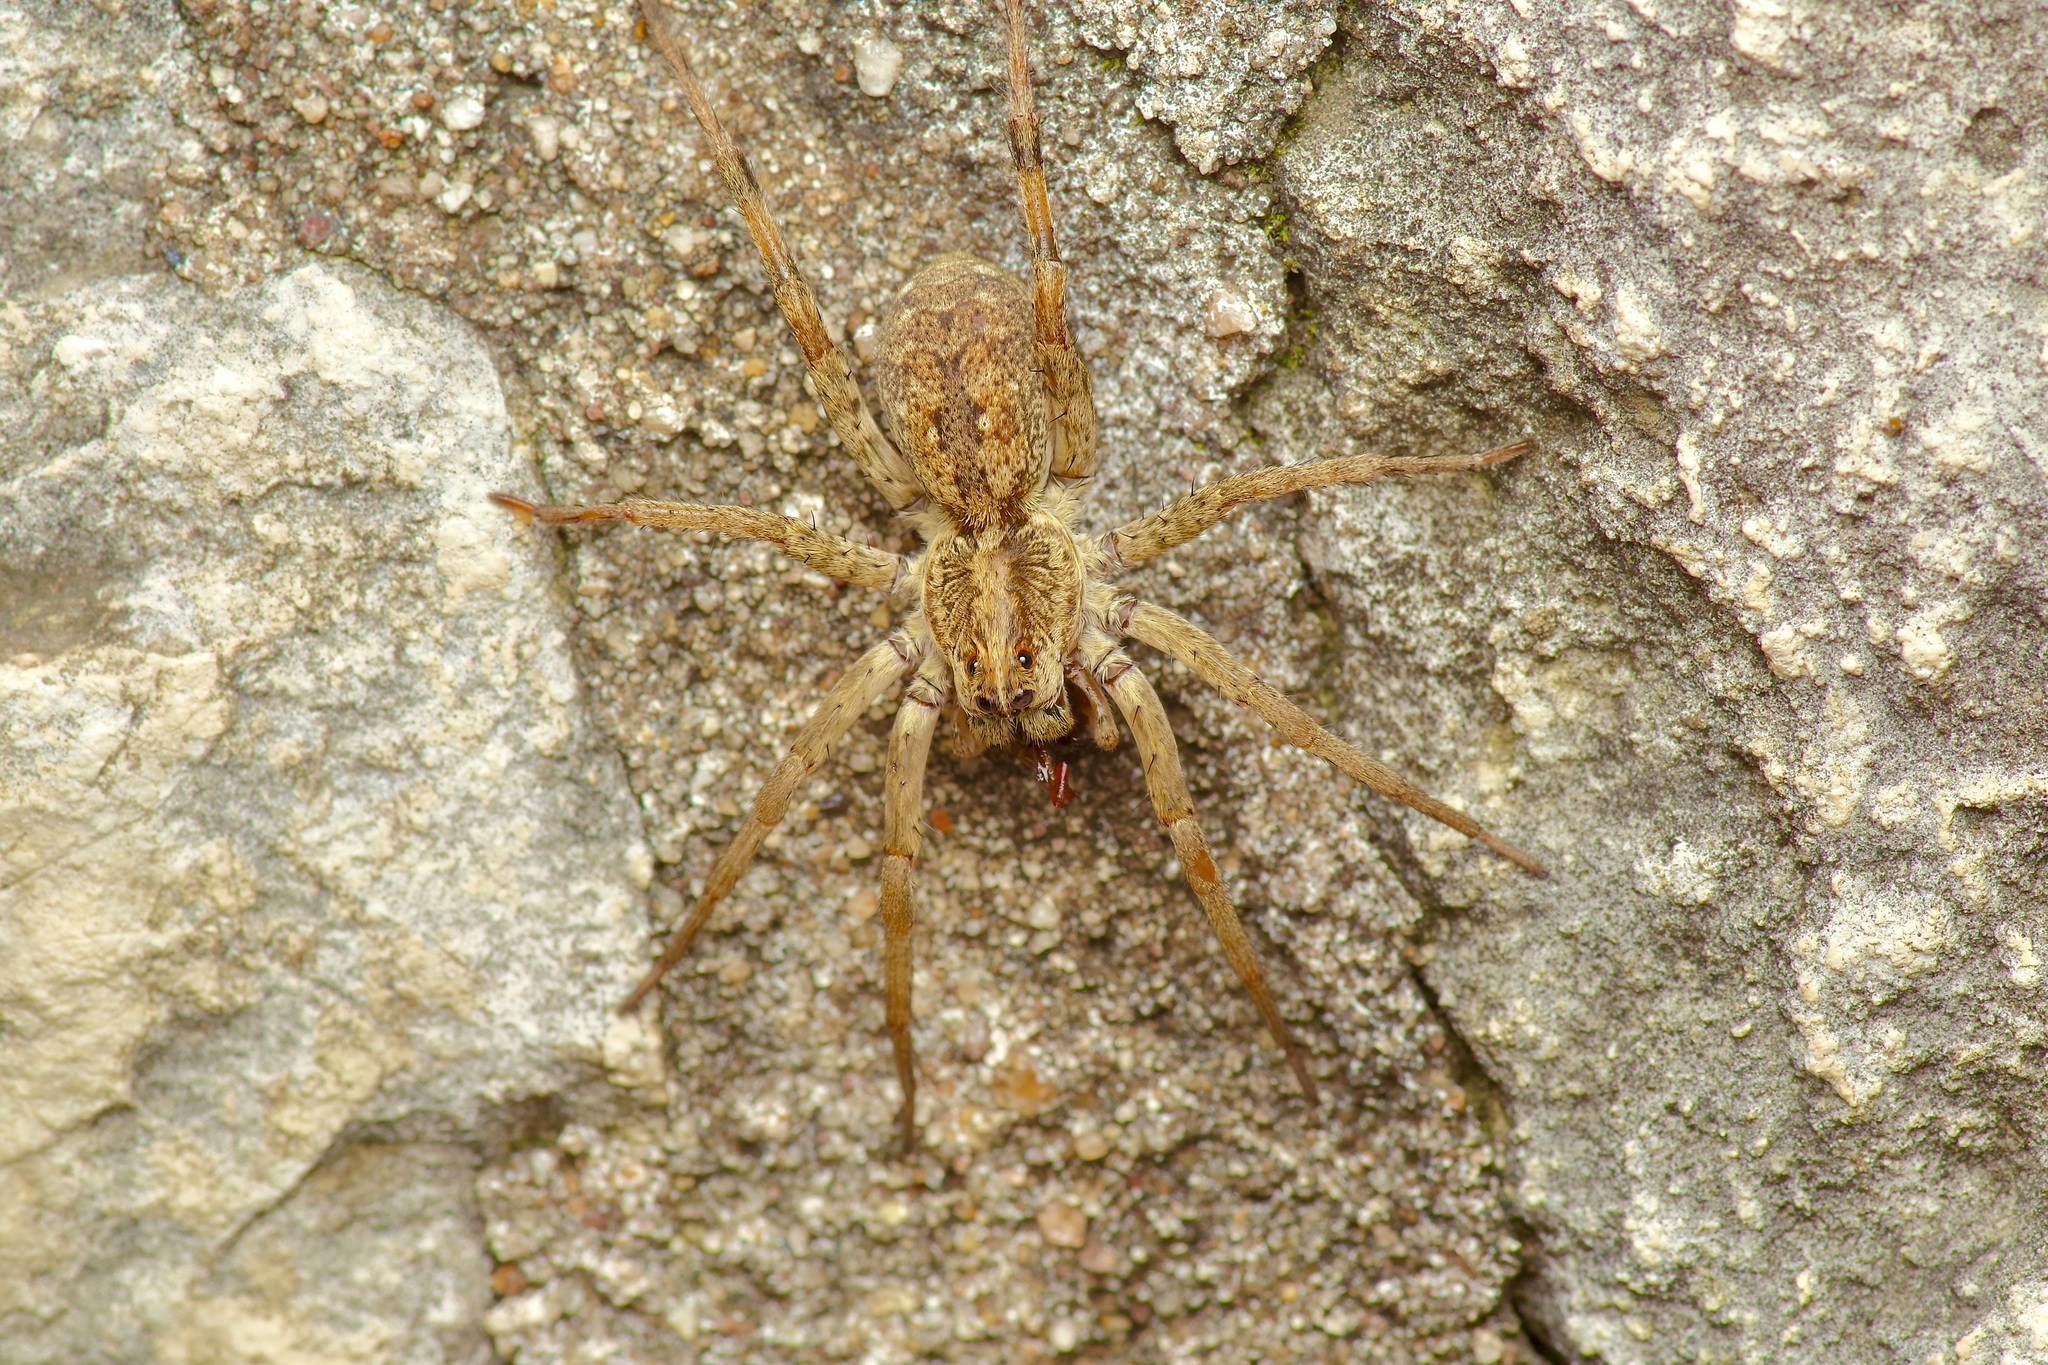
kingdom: Animalia
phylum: Arthropoda
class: Arachnida
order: Araneae
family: Lycosidae
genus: Hogna
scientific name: Hogna antelucana
